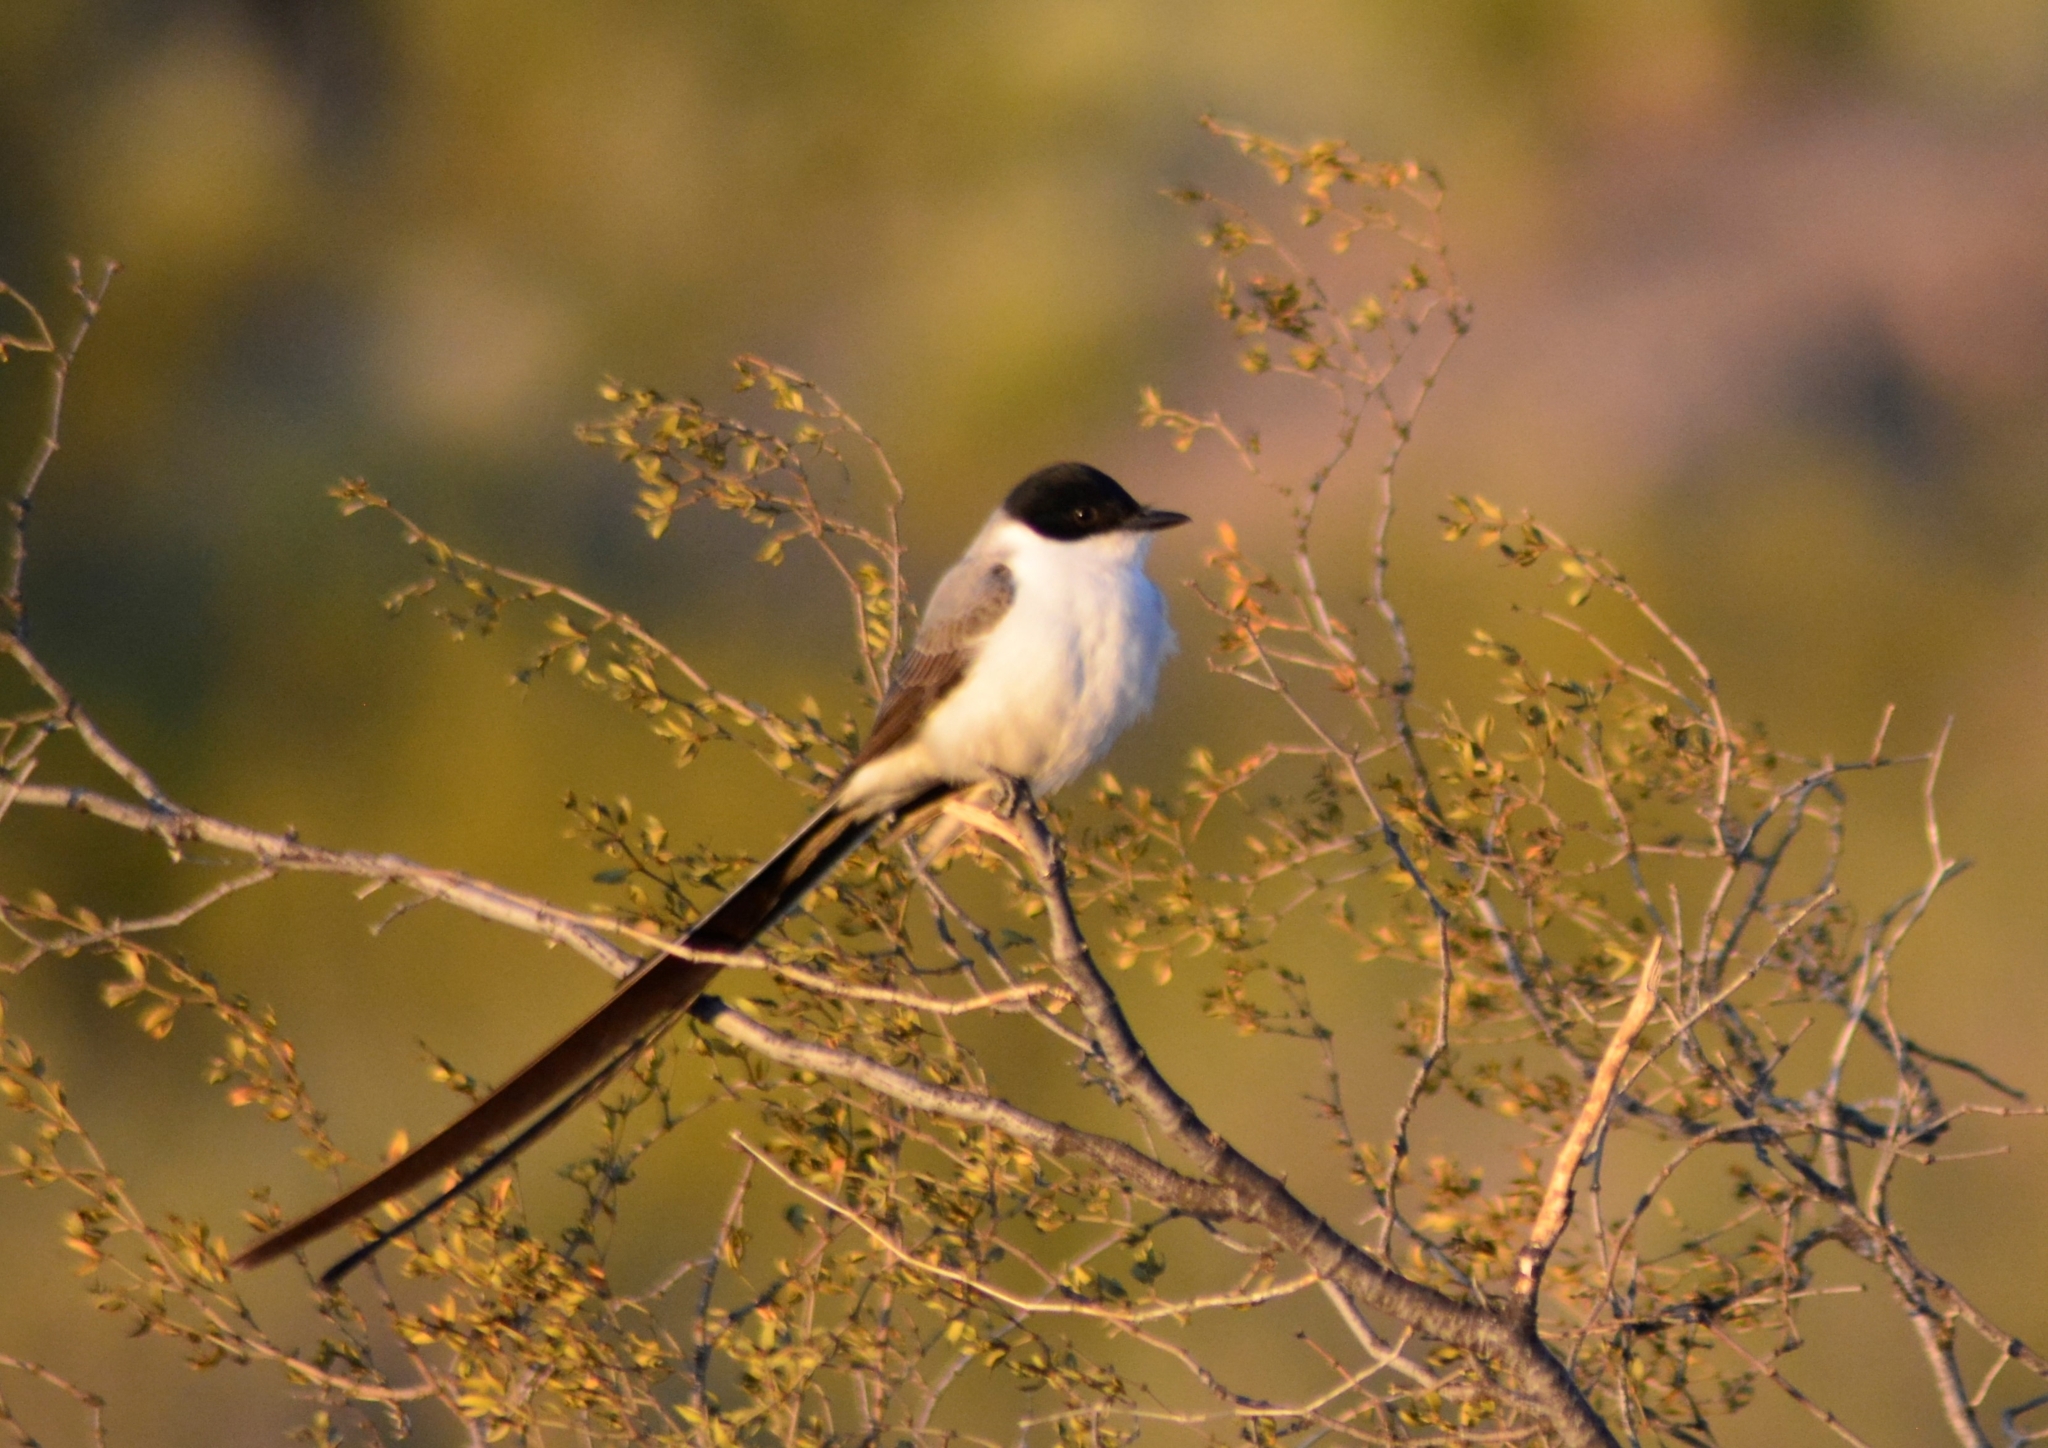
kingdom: Animalia
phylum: Chordata
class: Aves
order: Passeriformes
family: Tyrannidae
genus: Tyrannus
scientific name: Tyrannus savana
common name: Fork-tailed flycatcher
